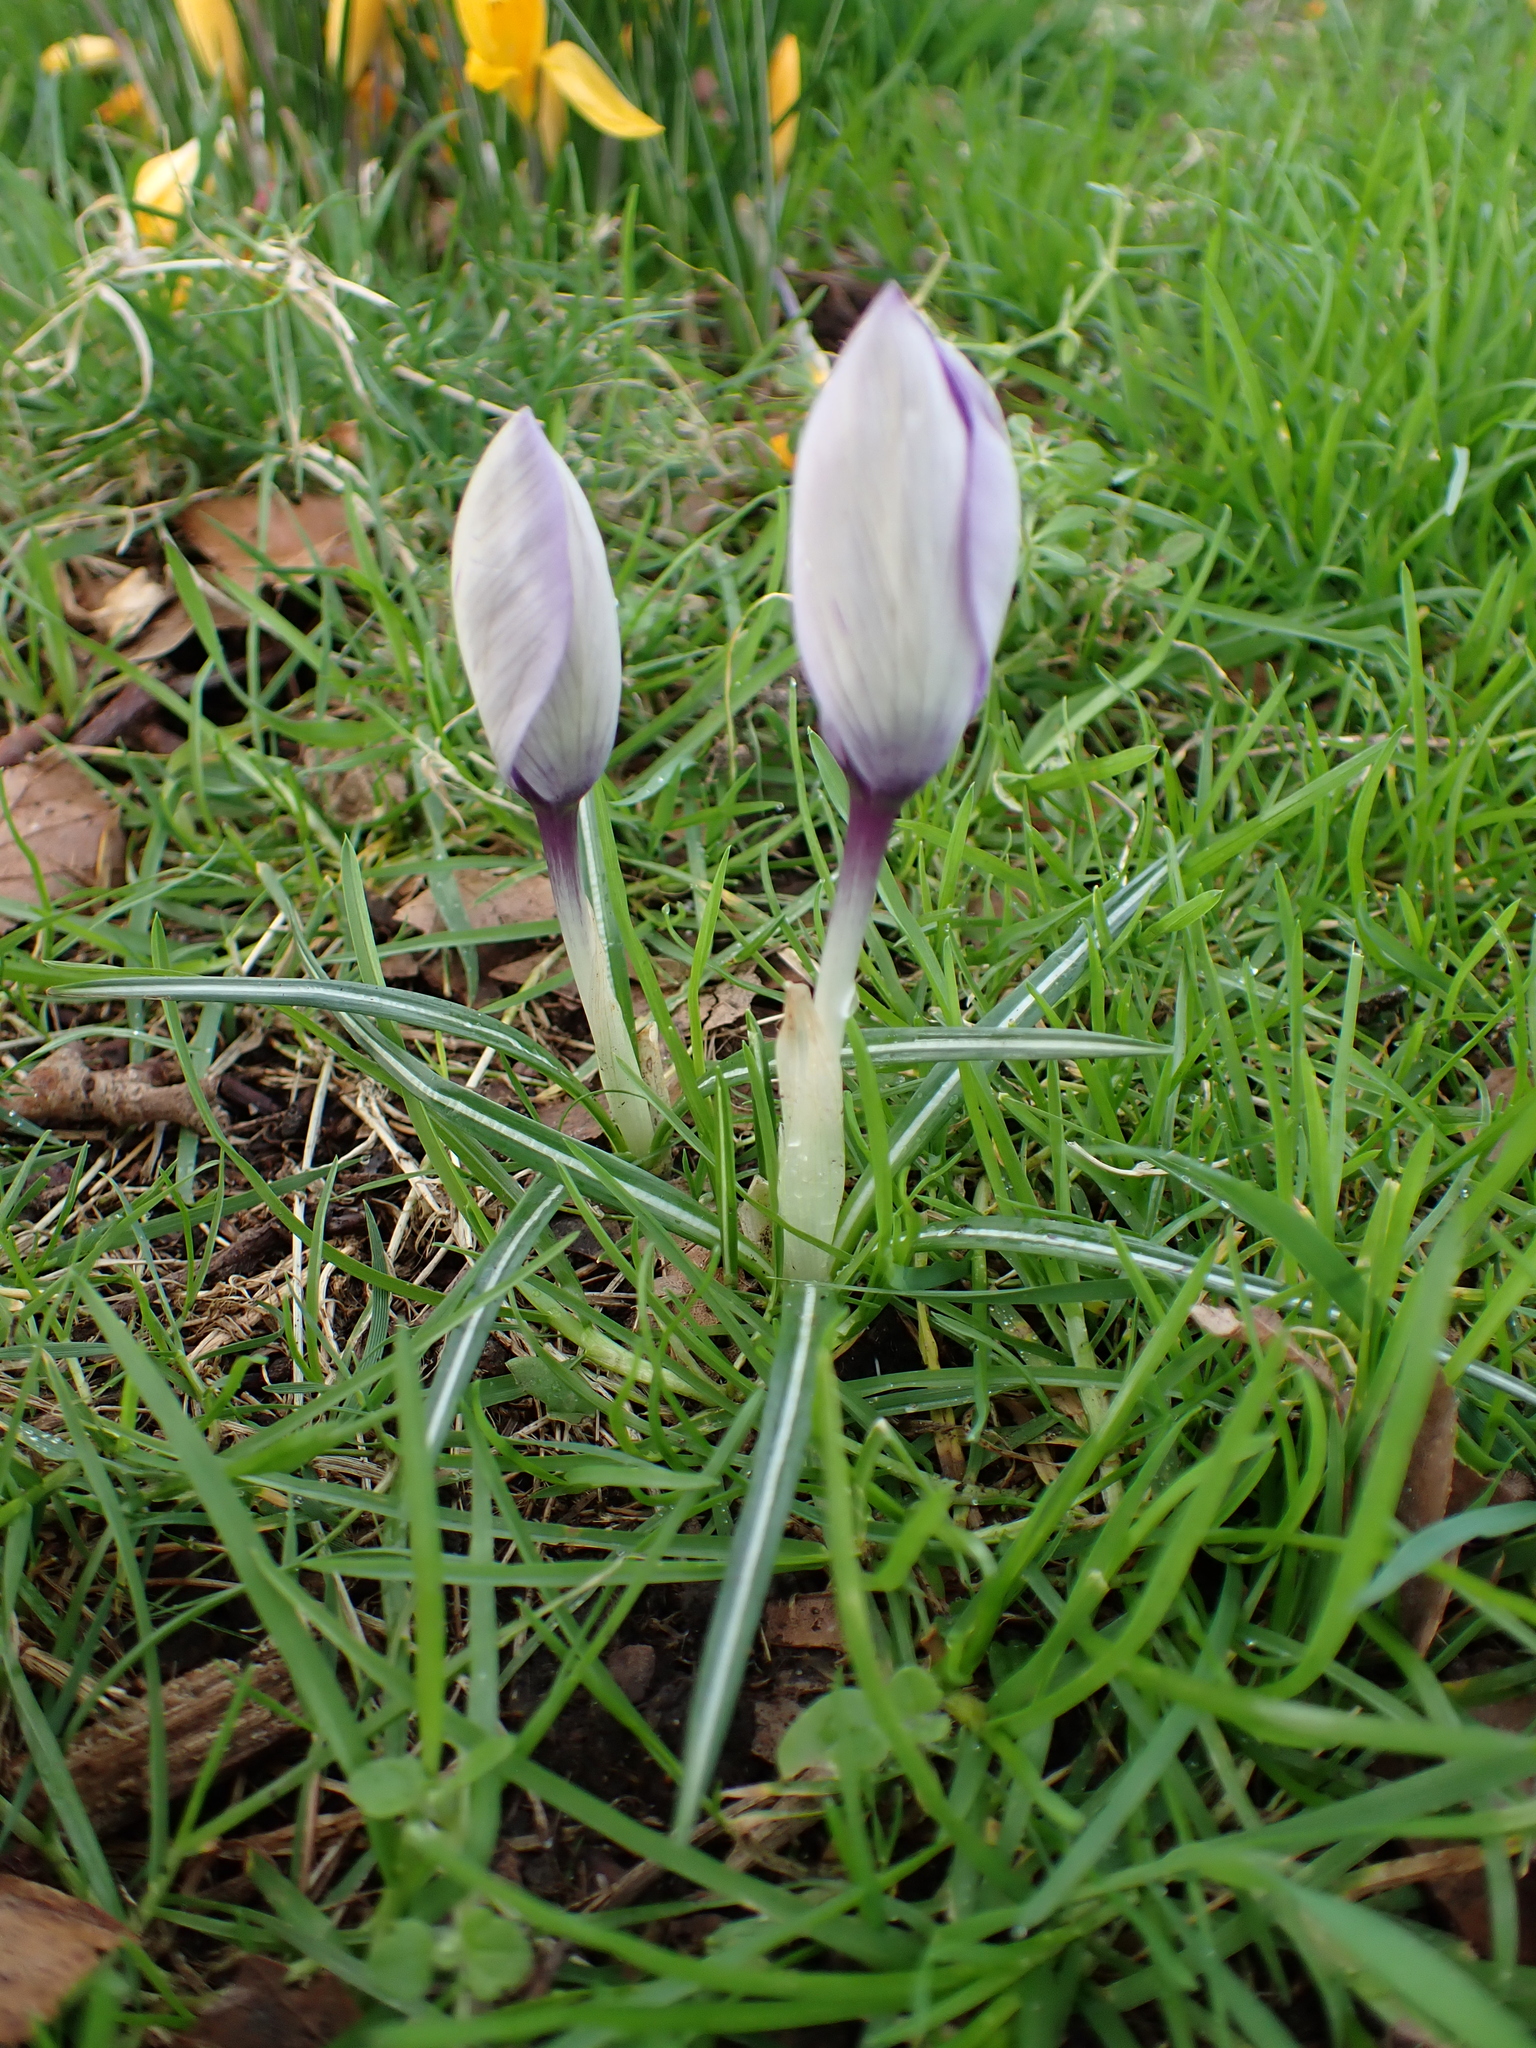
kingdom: Plantae
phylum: Tracheophyta
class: Liliopsida
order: Asparagales
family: Iridaceae
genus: Crocus
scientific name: Crocus
